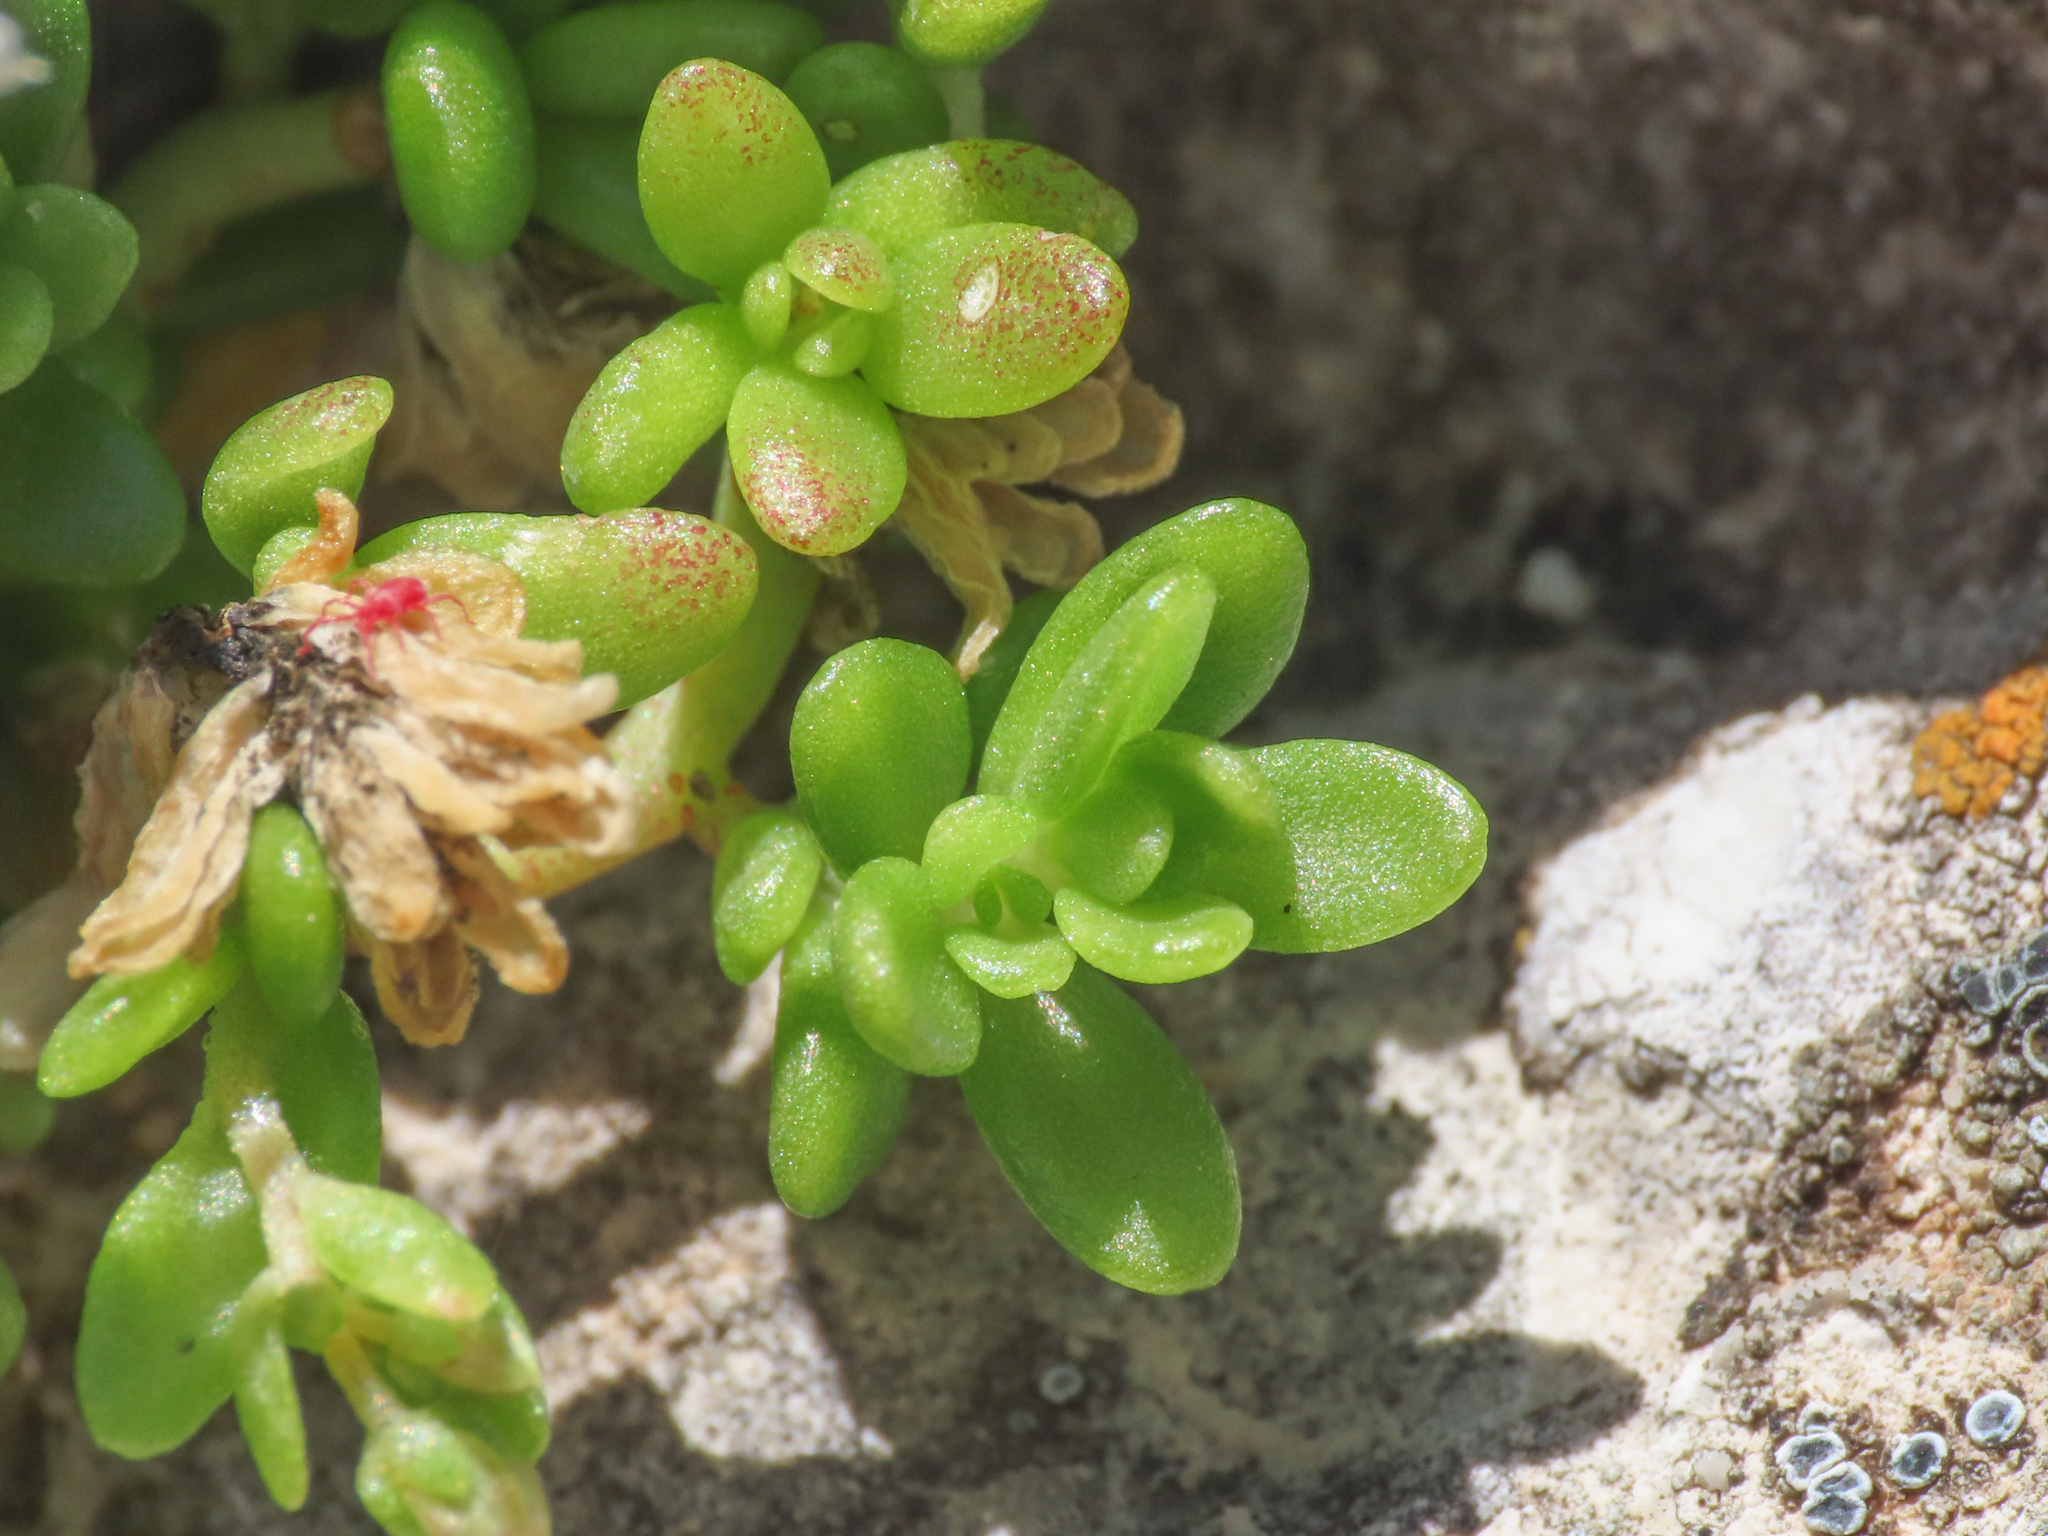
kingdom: Plantae
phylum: Tracheophyta
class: Magnoliopsida
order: Saxifragales
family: Crassulaceae
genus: Sedum
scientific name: Sedum magellense
